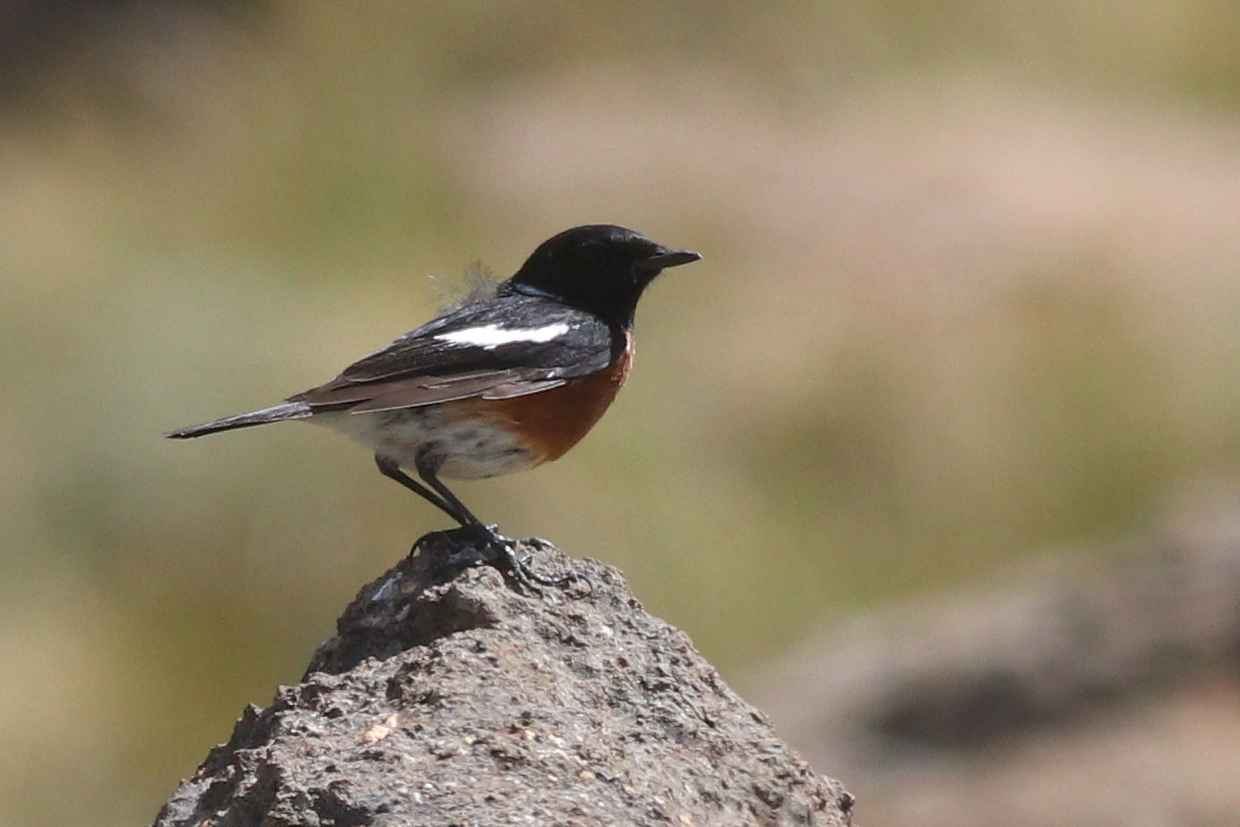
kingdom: Animalia
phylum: Chordata
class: Aves
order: Passeriformes
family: Muscicapidae
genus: Saxicola
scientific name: Saxicola torquatus
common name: African stonechat
